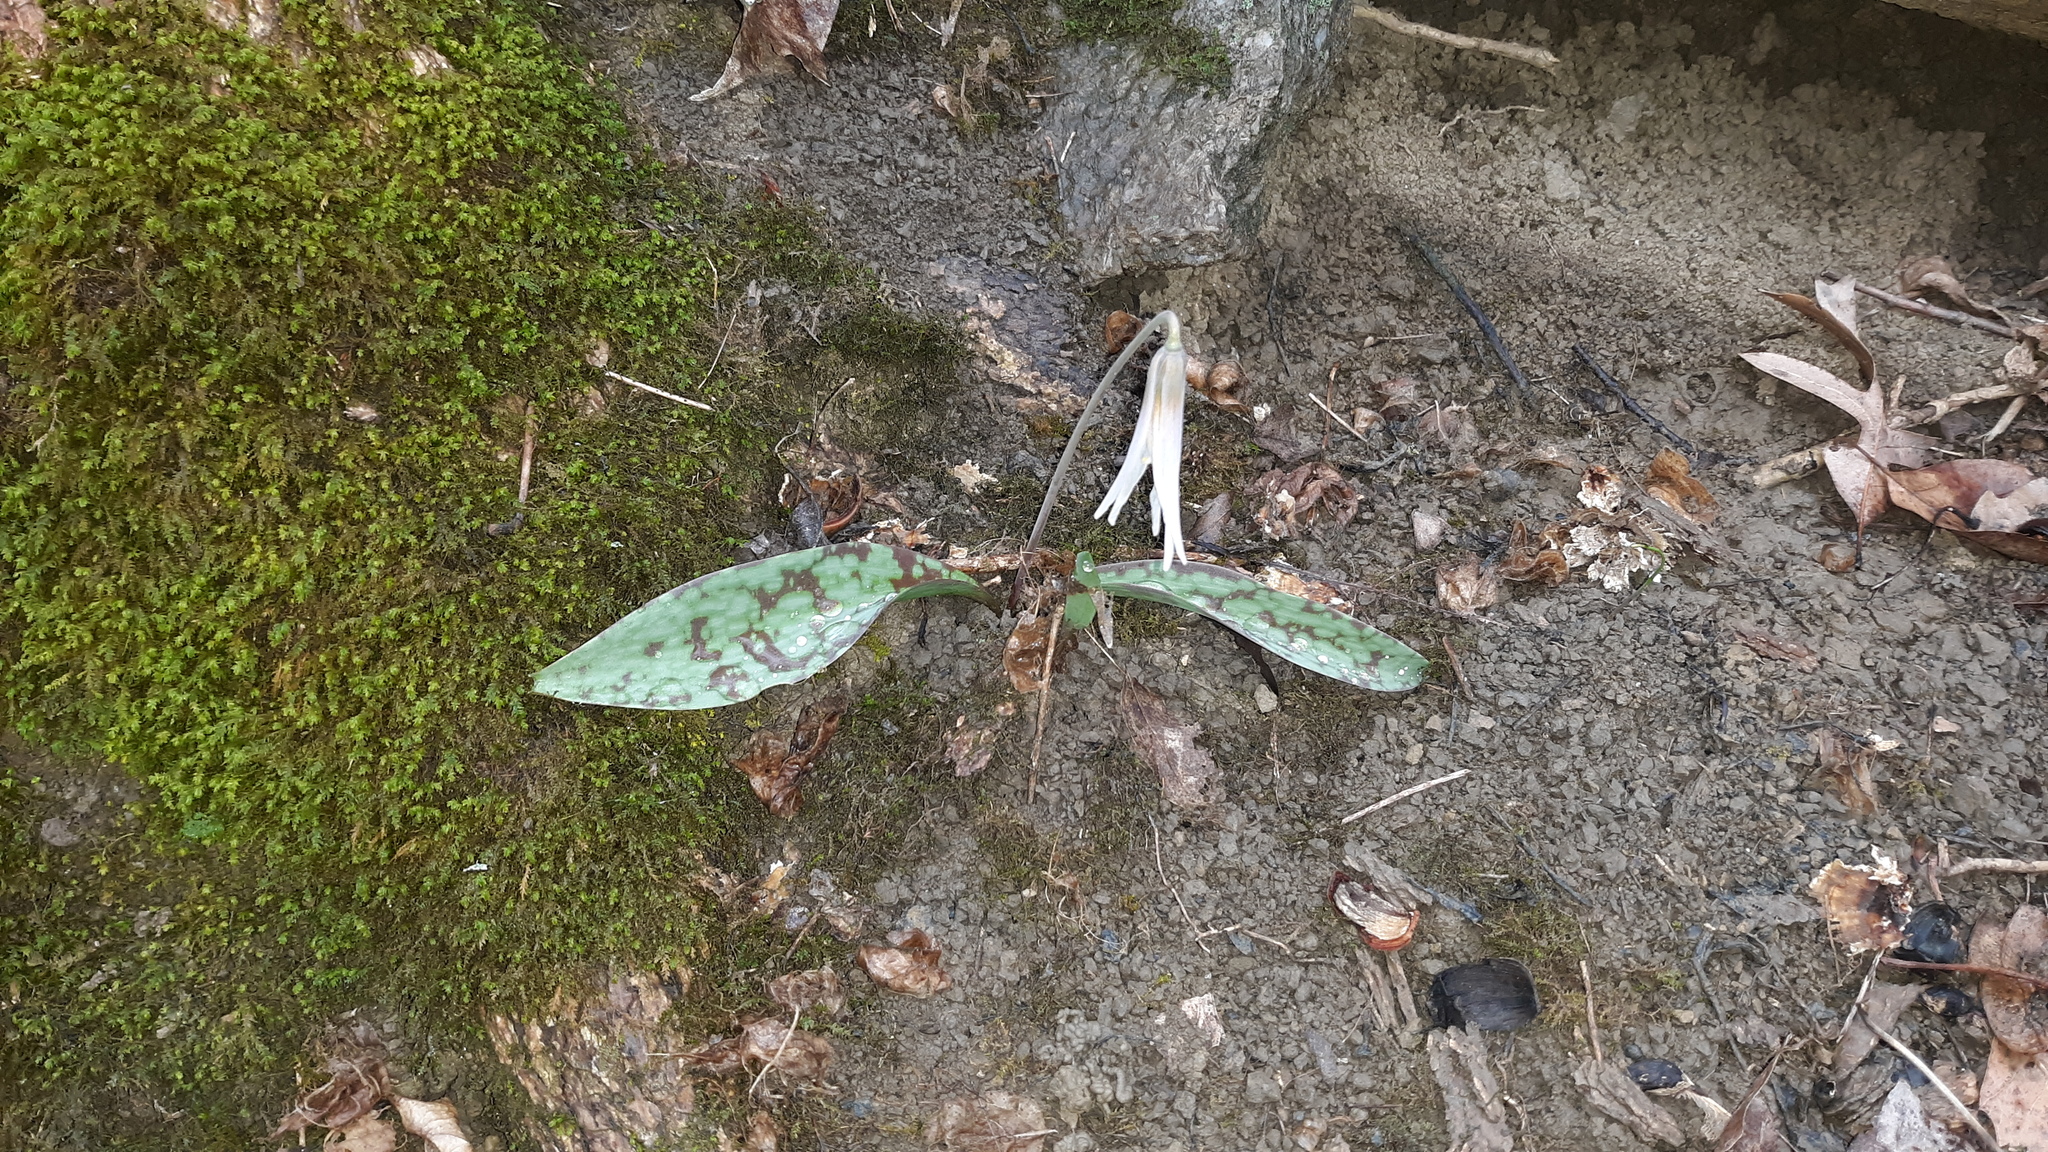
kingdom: Plantae
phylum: Tracheophyta
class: Liliopsida
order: Liliales
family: Liliaceae
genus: Erythronium
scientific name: Erythronium albidum
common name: White trout-lily
